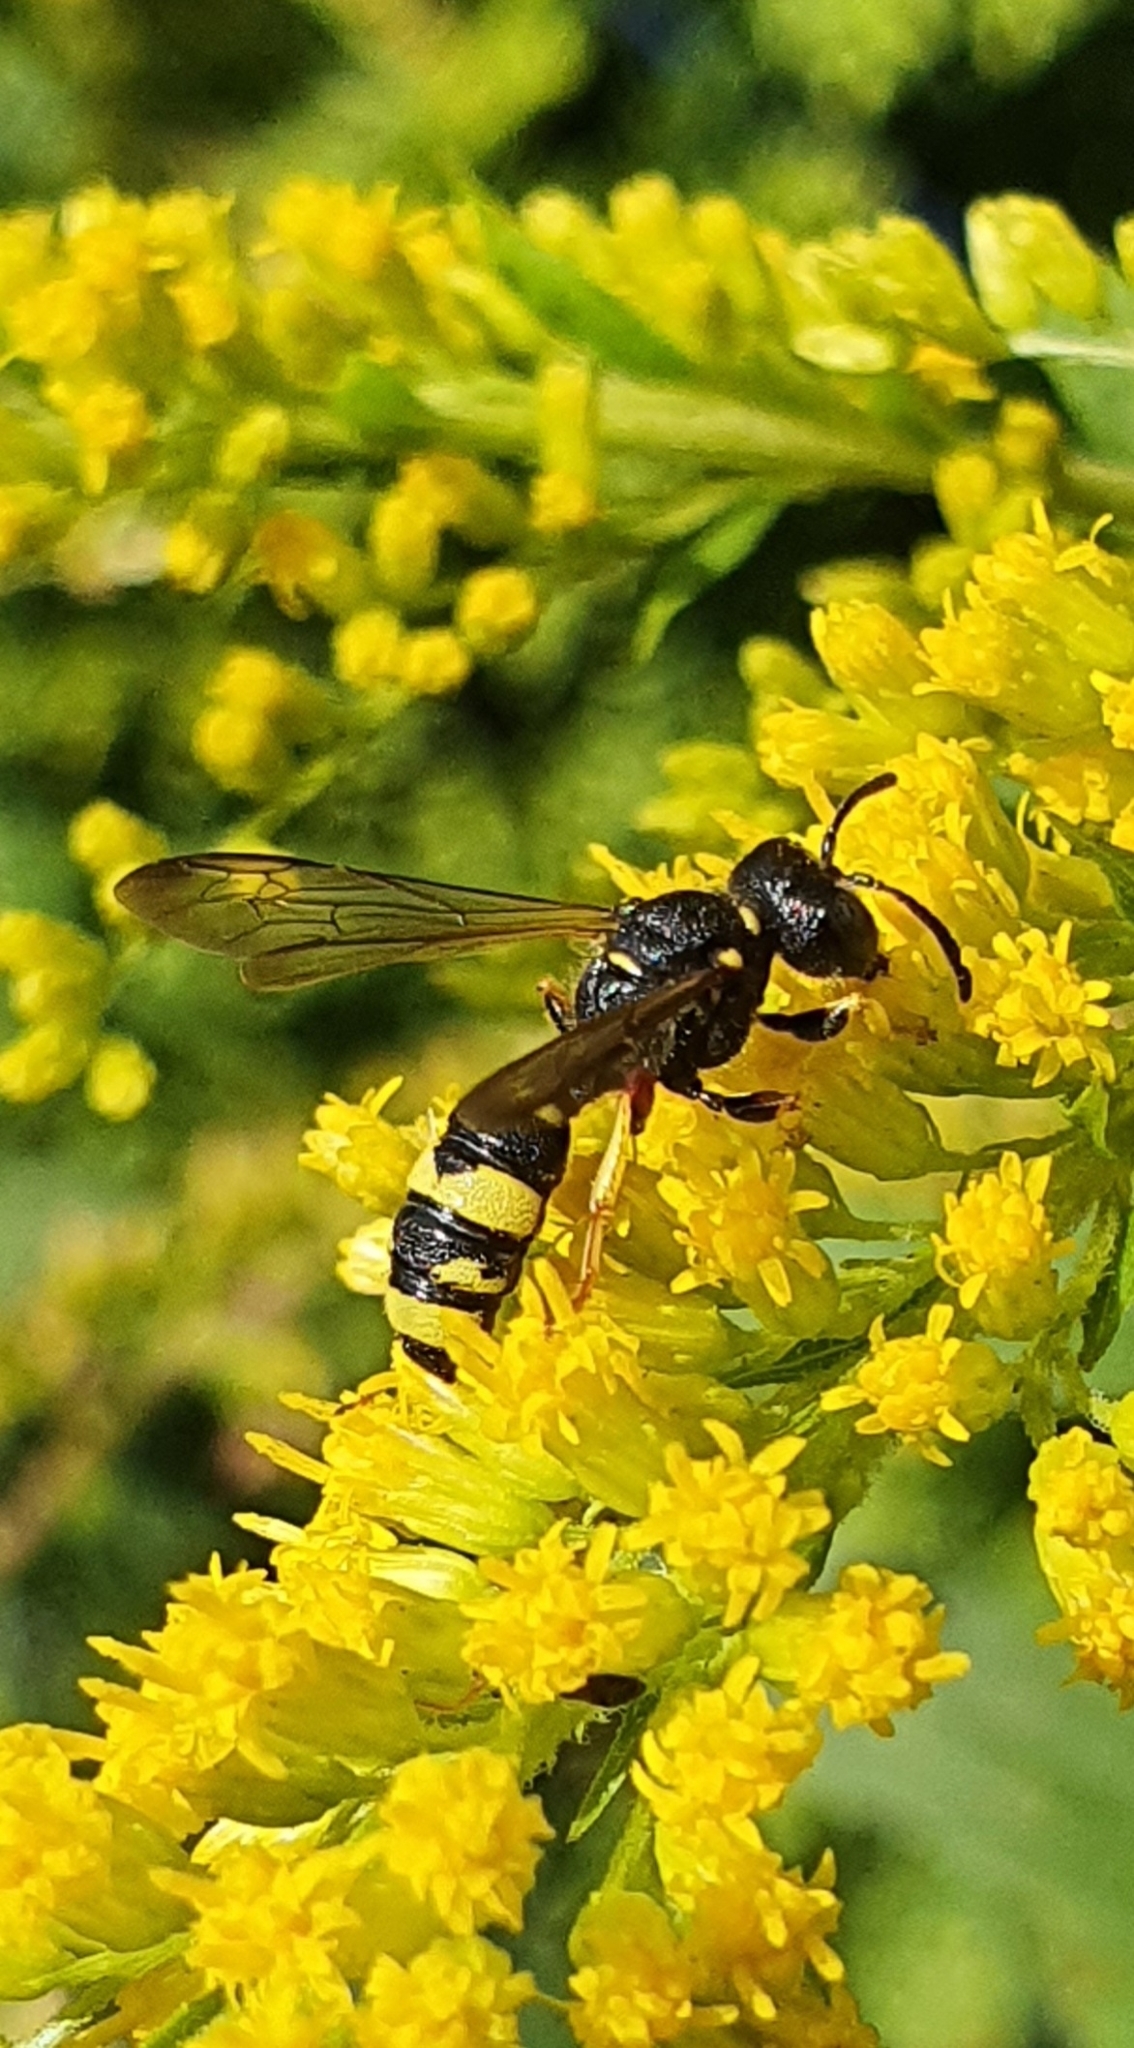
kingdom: Animalia
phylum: Arthropoda
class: Insecta
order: Hymenoptera
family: Crabronidae
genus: Cerceris
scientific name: Cerceris rybyensis
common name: Ornate tailed digger wasp
